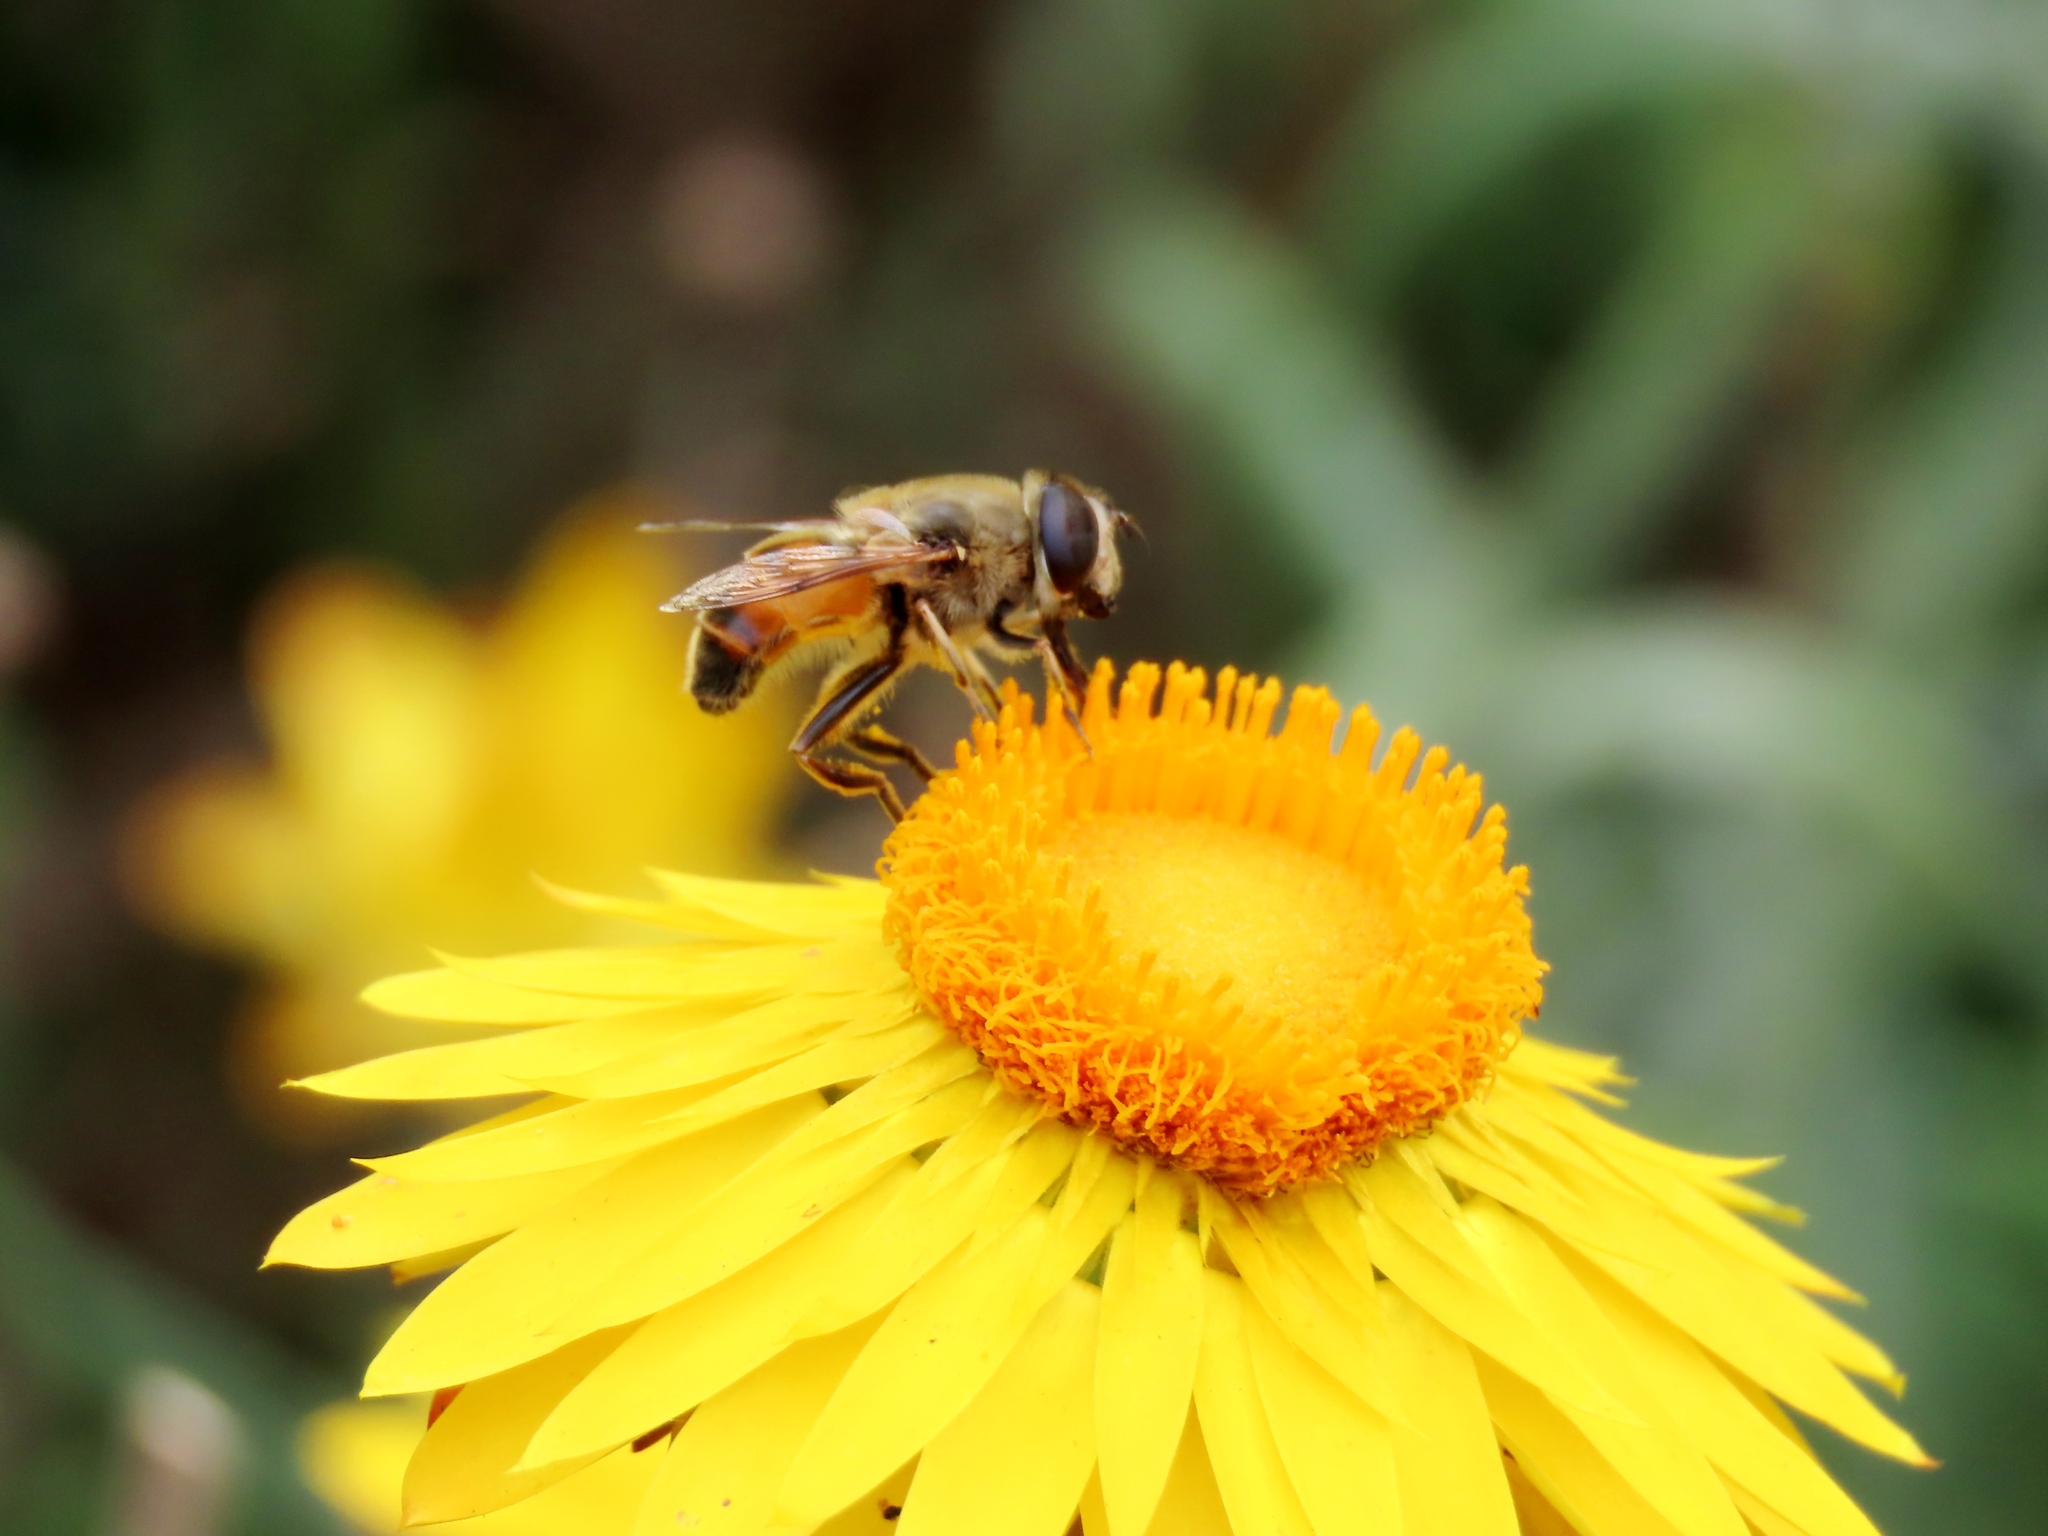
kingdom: Animalia
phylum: Arthropoda
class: Insecta
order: Diptera
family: Syrphidae
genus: Eristalis
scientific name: Eristalis tenax
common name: Drone fly
